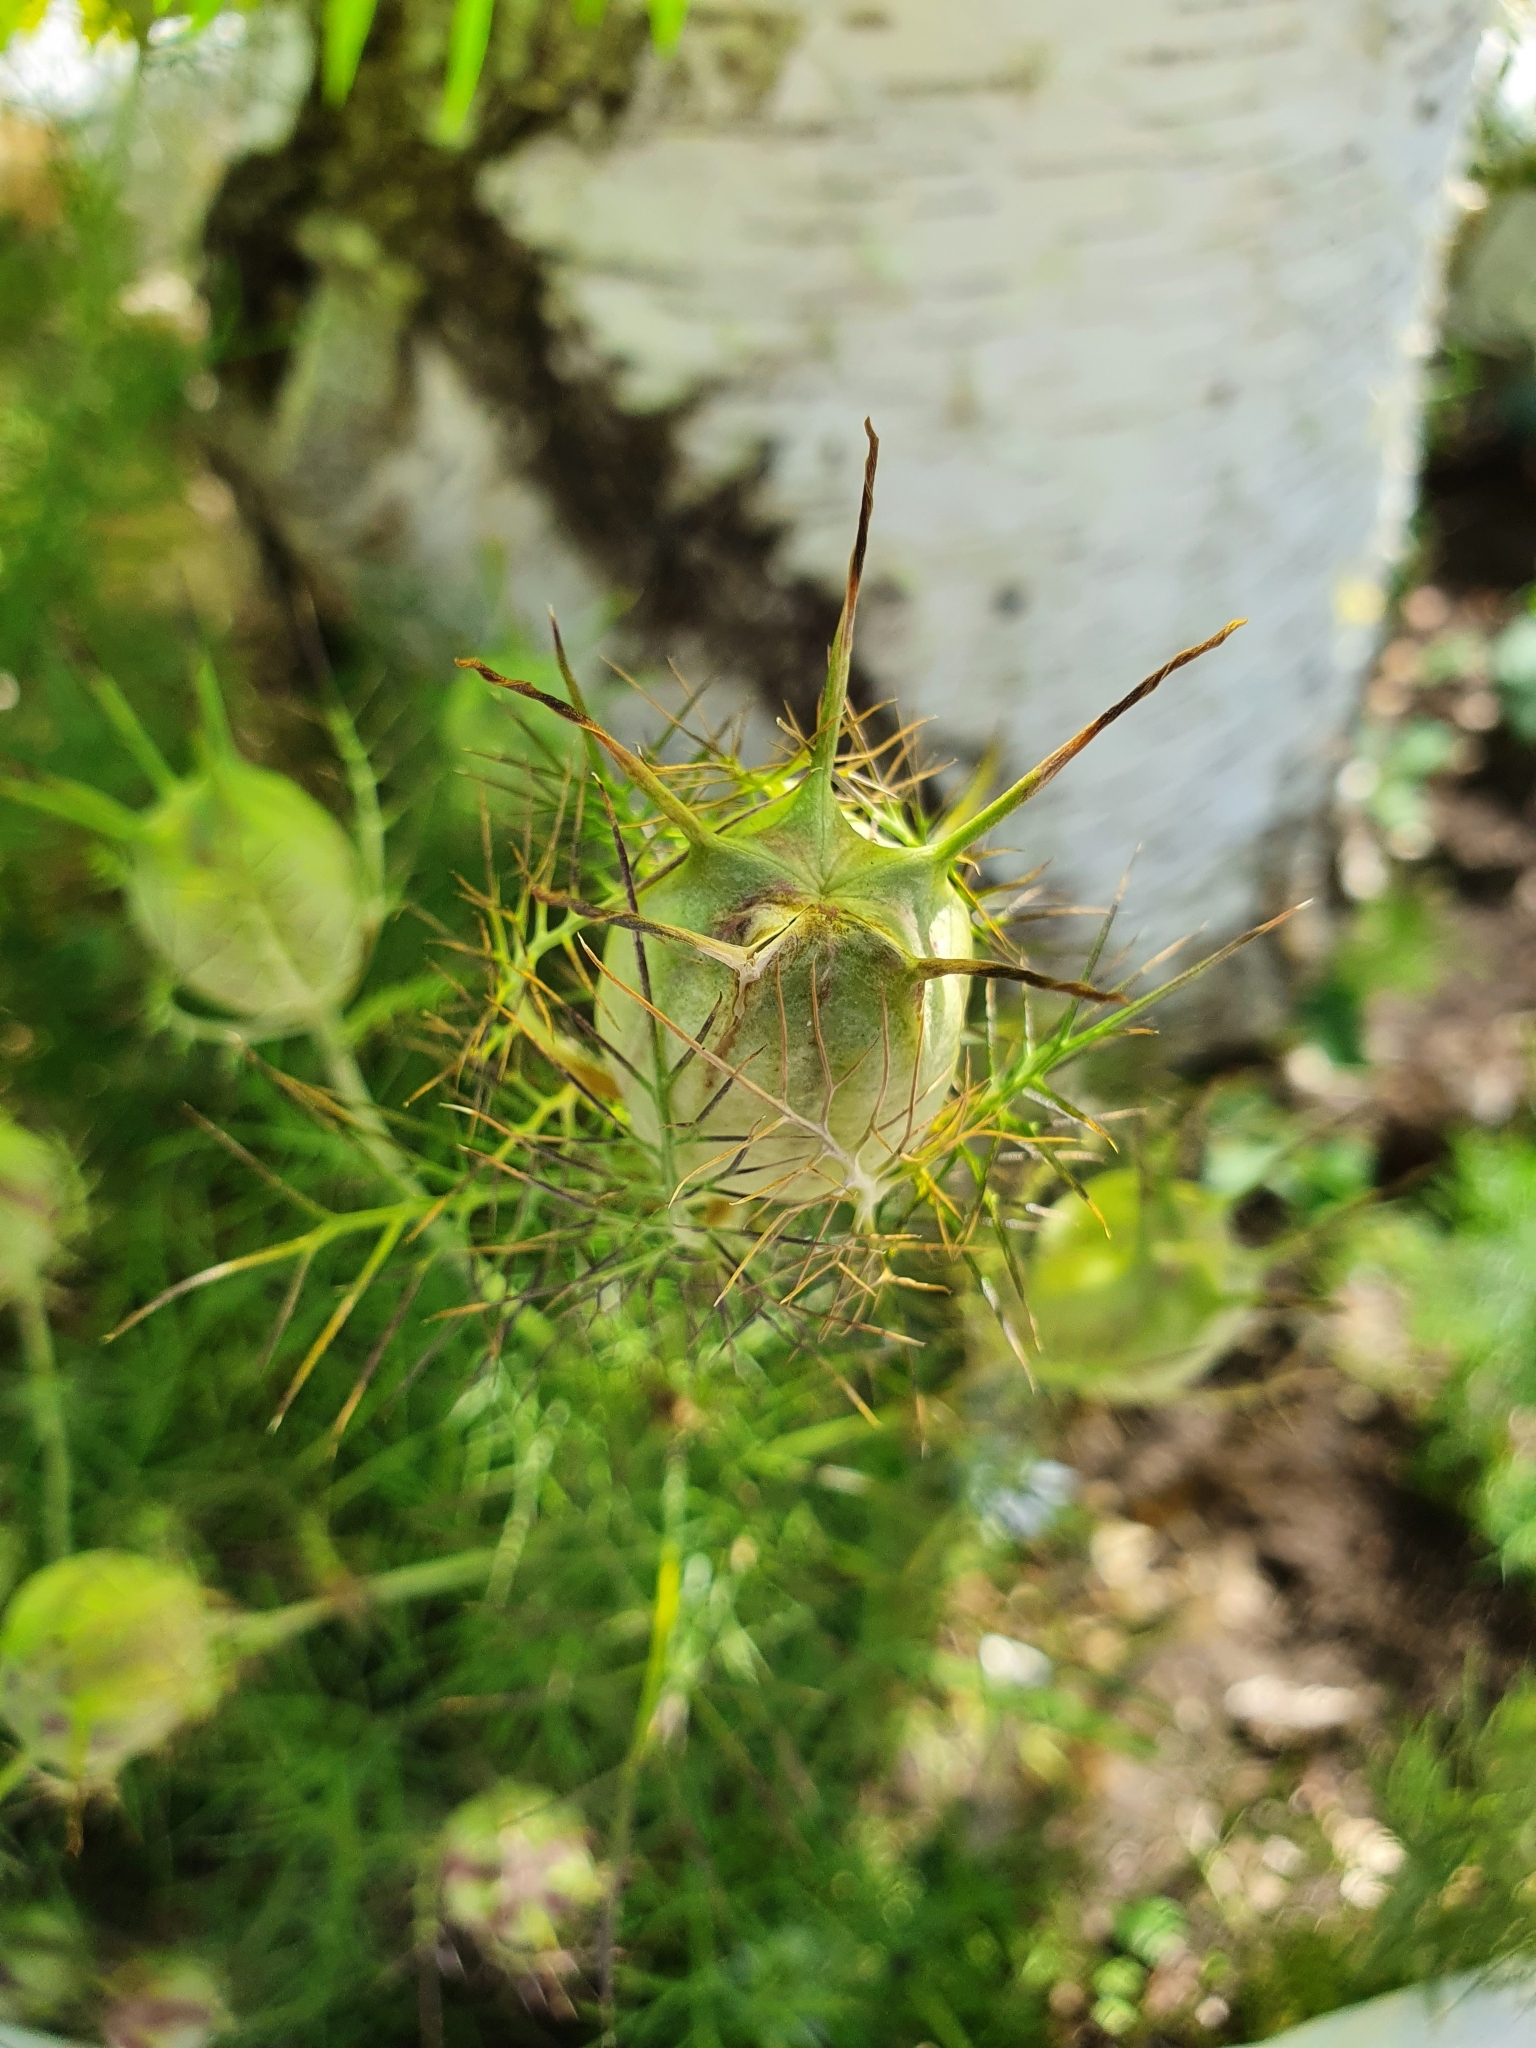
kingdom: Plantae
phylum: Tracheophyta
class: Magnoliopsida
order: Ranunculales
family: Ranunculaceae
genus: Nigella
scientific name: Nigella damascena
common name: Love-in-a-mist
